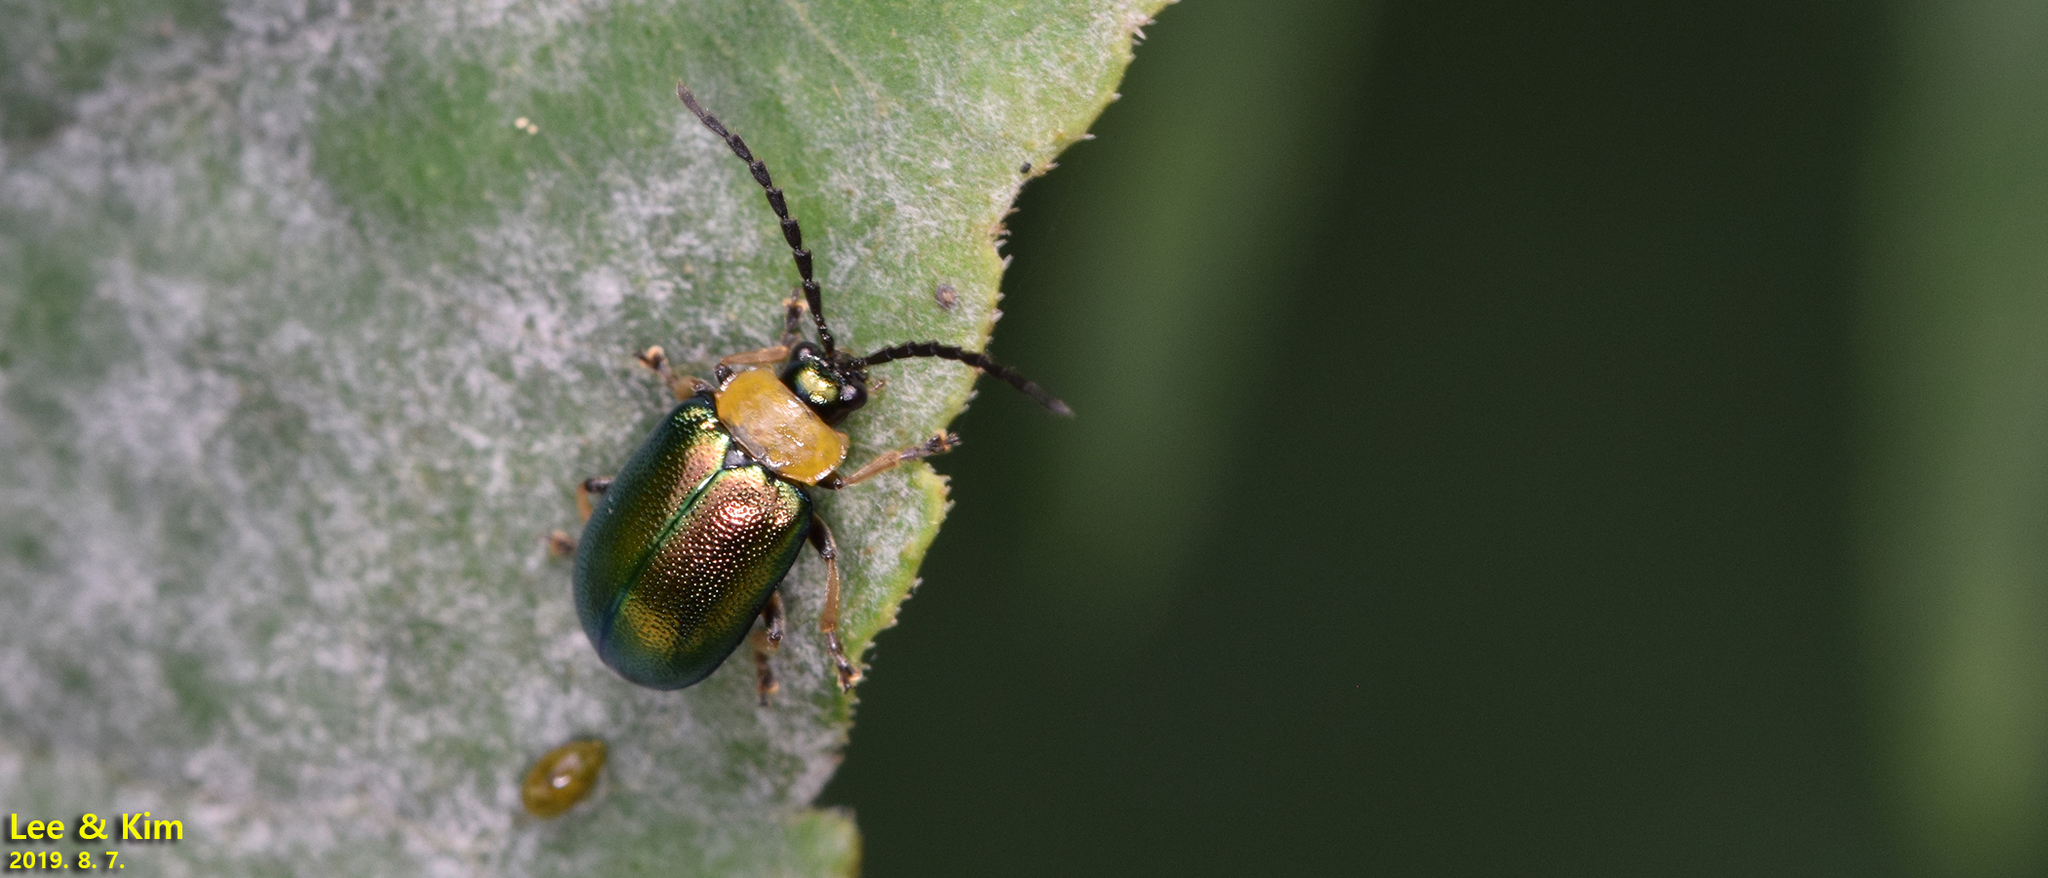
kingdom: Animalia
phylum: Arthropoda
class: Insecta
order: Coleoptera
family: Chrysomelidae
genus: Agelasa
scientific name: Agelasa nigriceps
